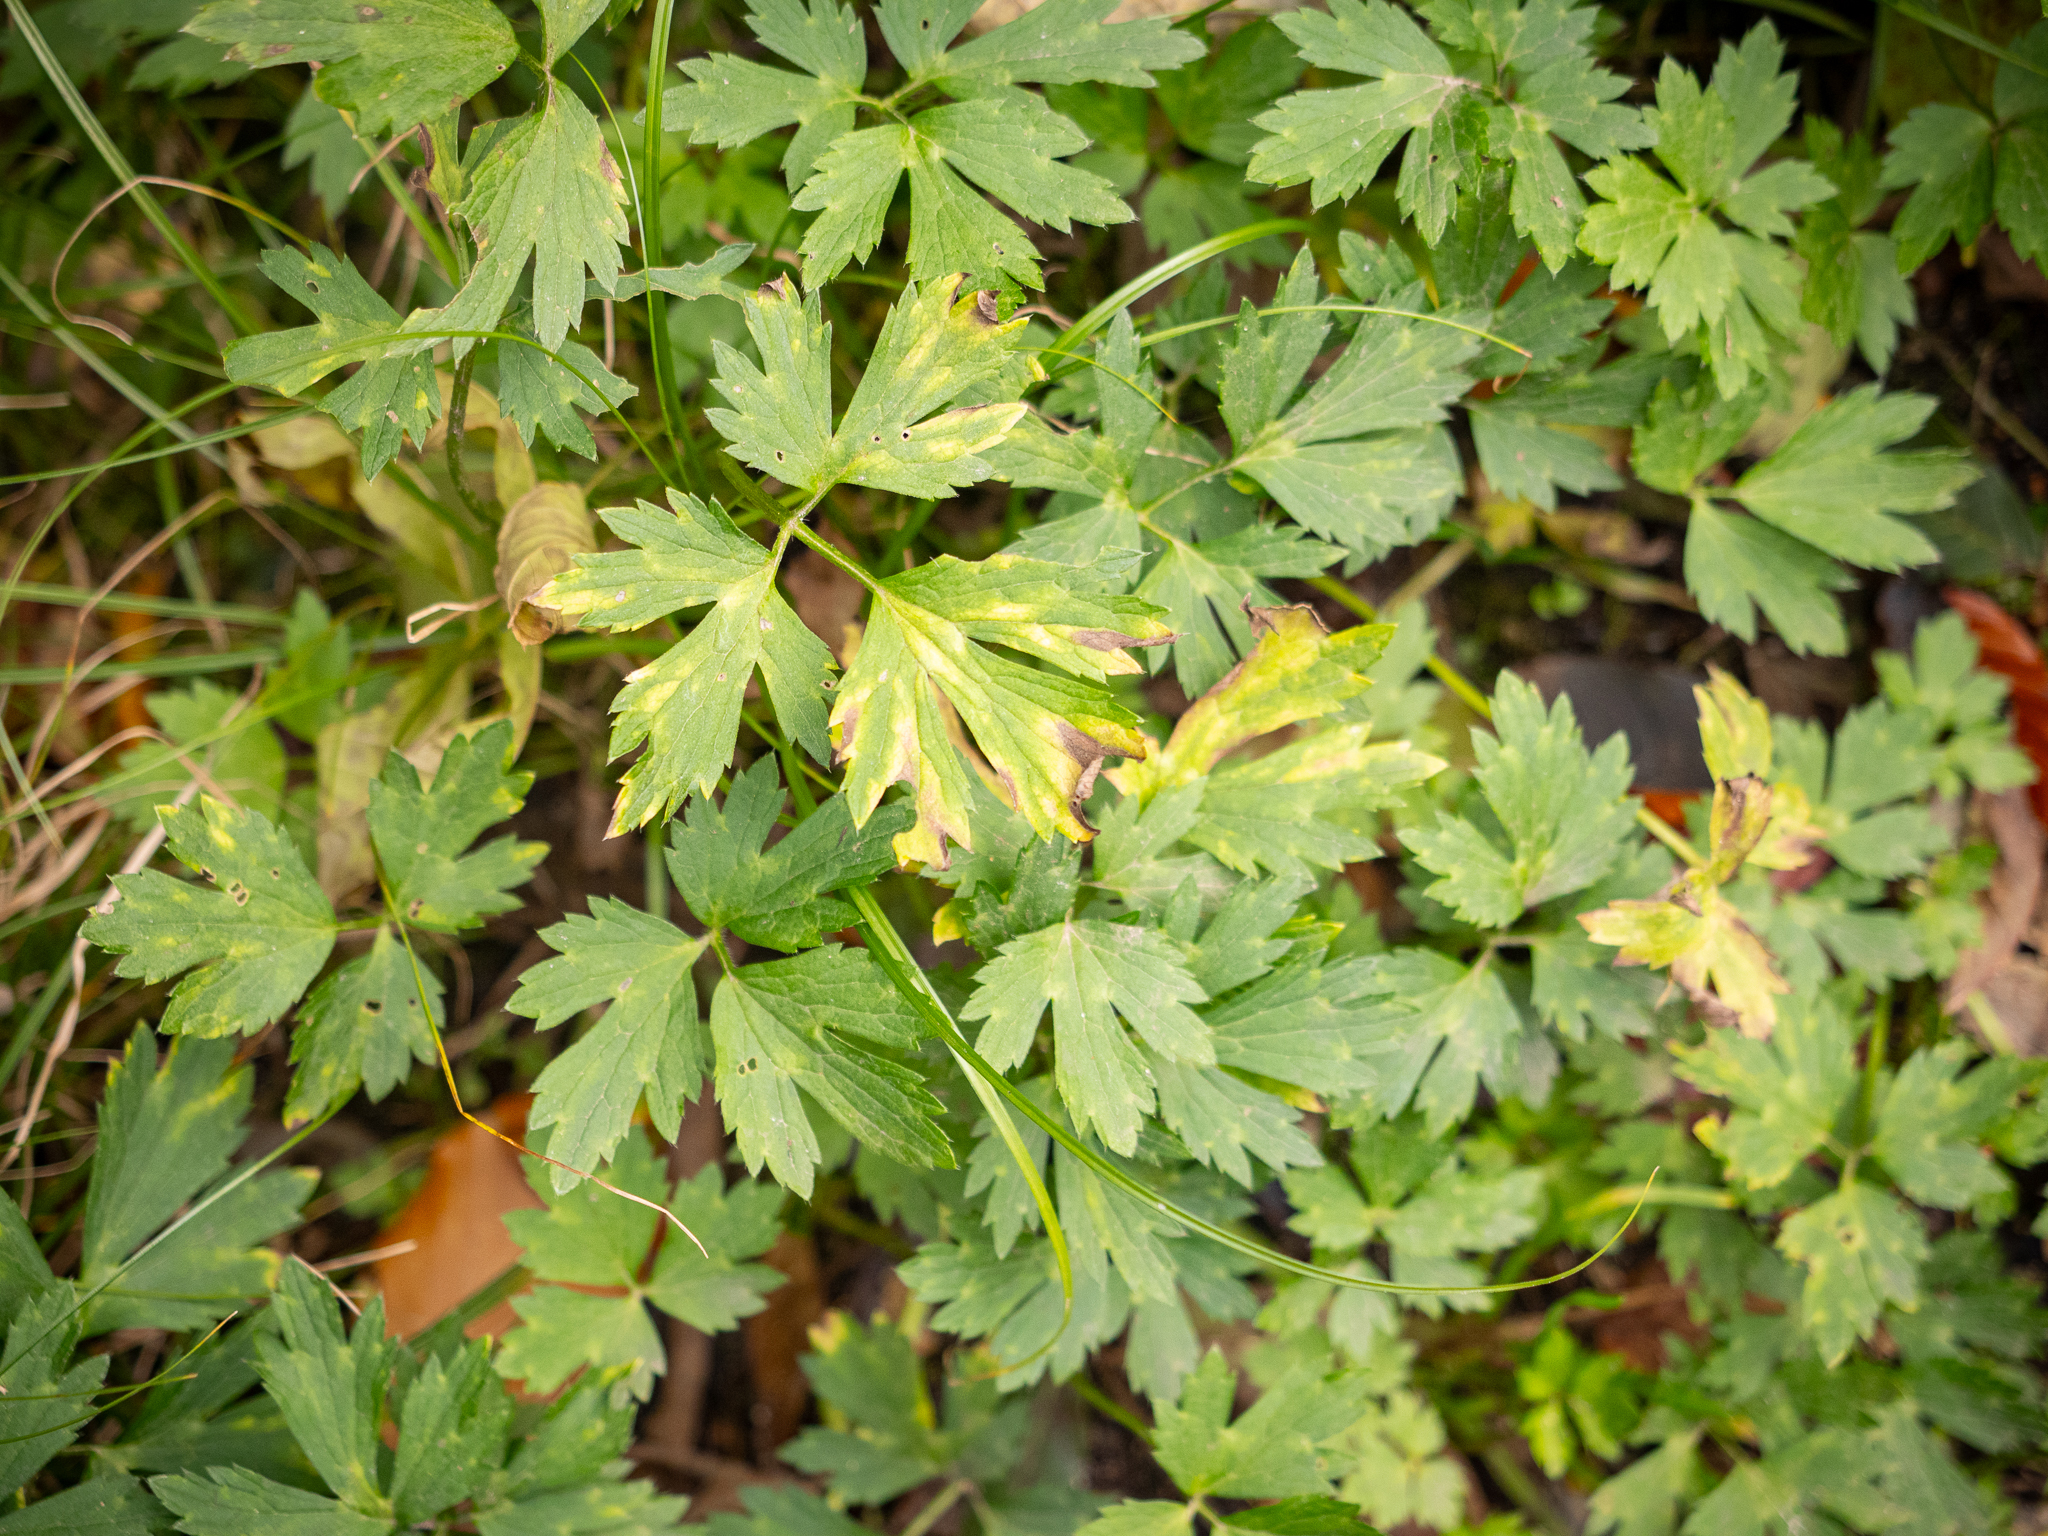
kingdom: Plantae
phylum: Tracheophyta
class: Magnoliopsida
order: Ranunculales
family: Ranunculaceae
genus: Ranunculus
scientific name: Ranunculus repens
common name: Creeping buttercup
